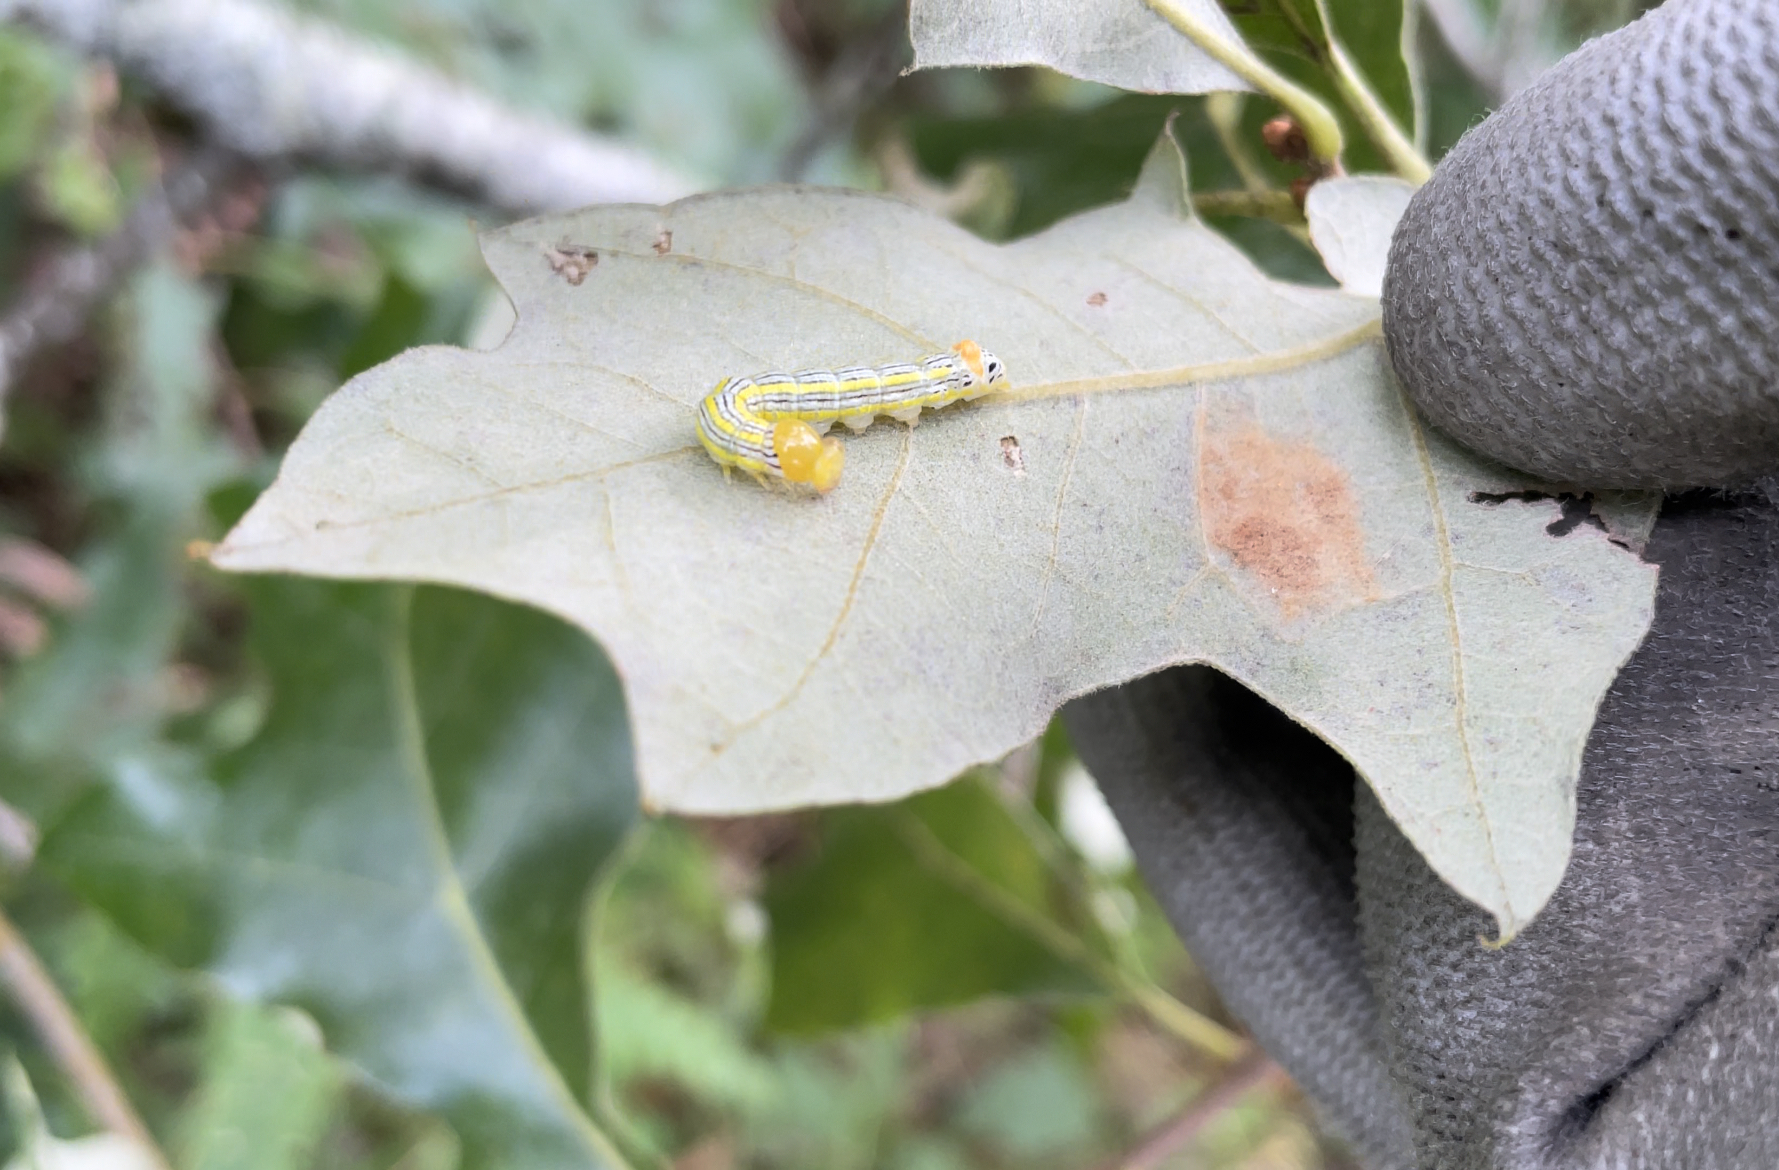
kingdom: Animalia
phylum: Arthropoda
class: Insecta
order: Lepidoptera
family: Notodontidae
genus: Symmerista
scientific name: Symmerista leucitys
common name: Orange-humped mapleworm
